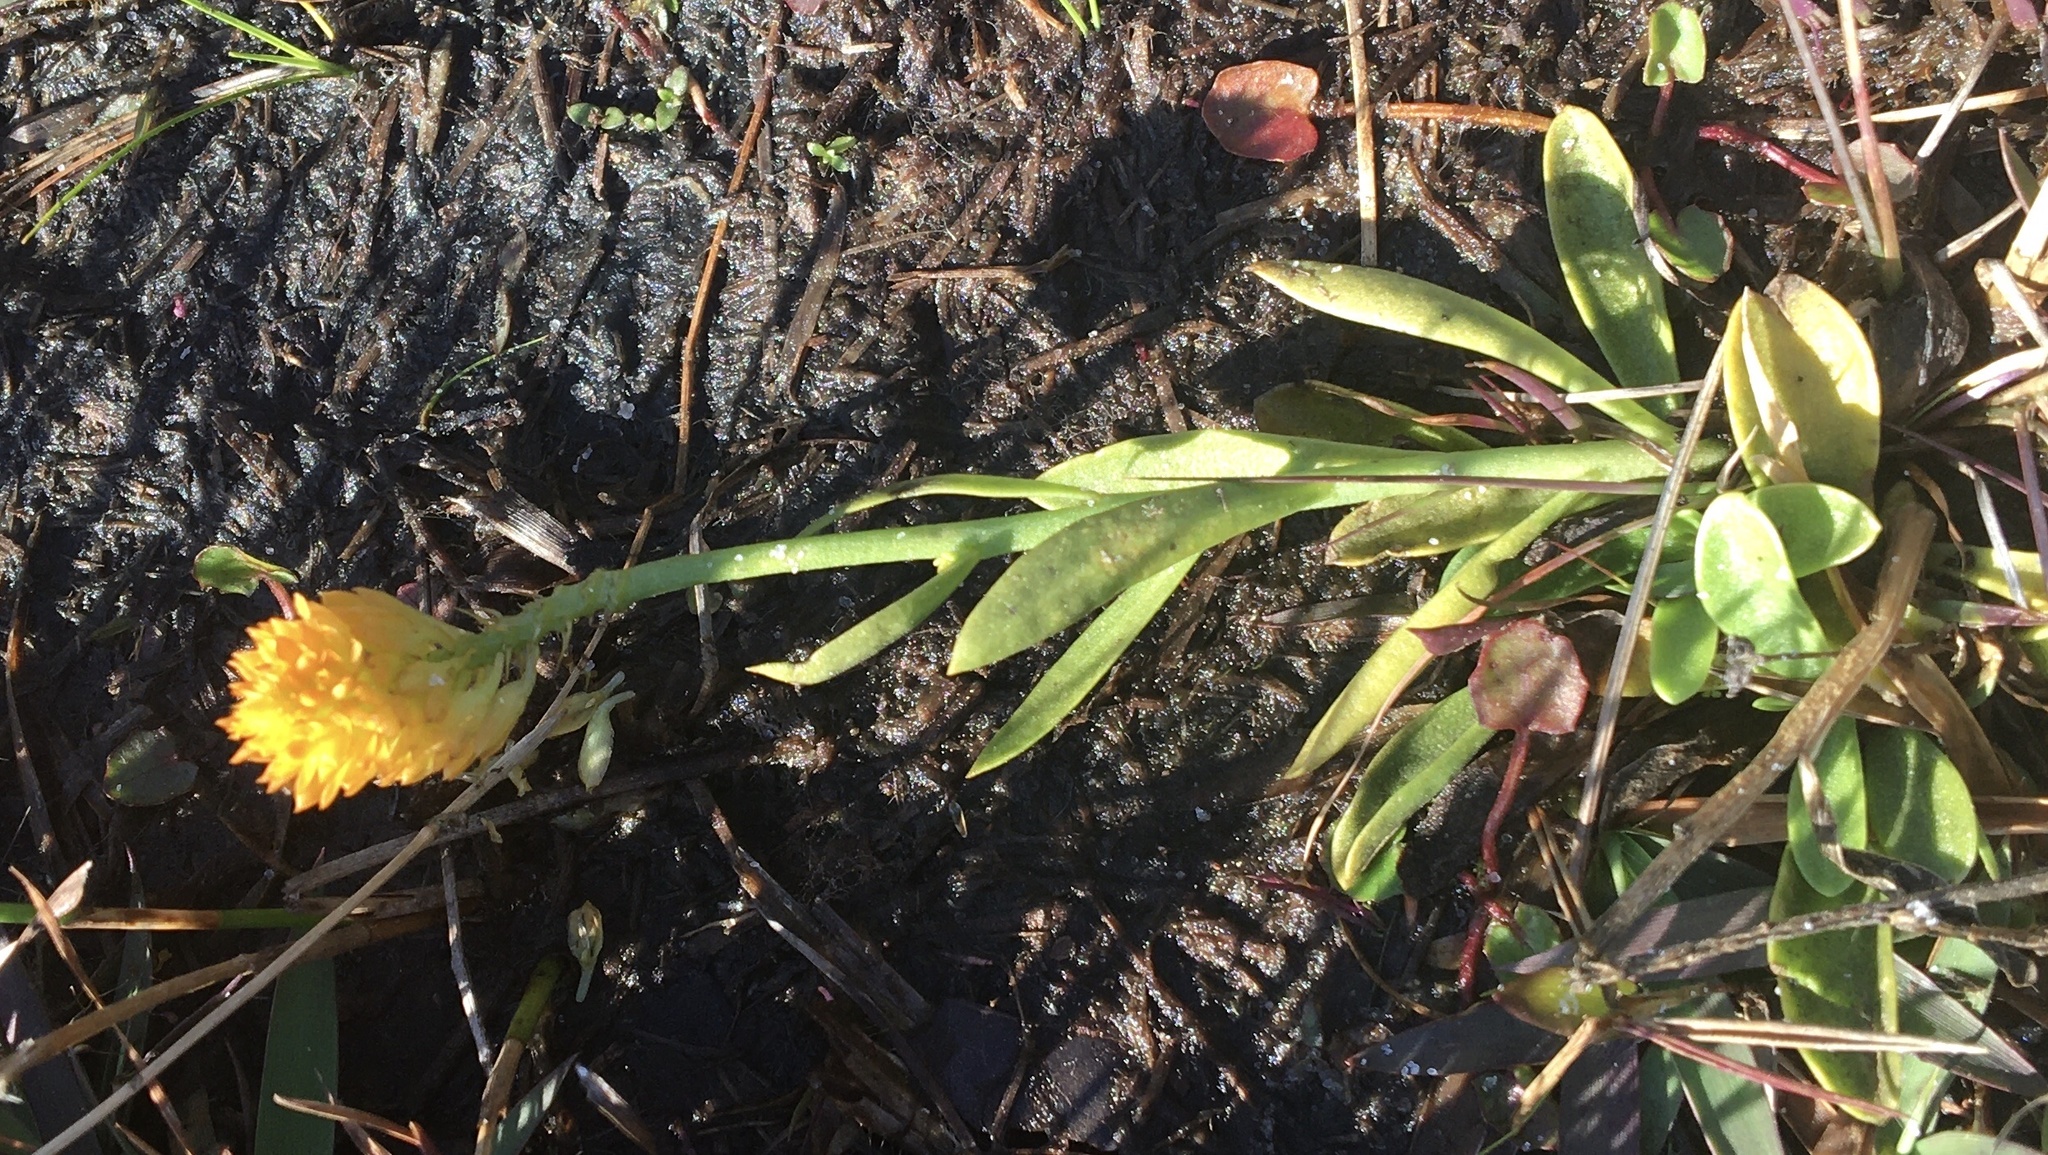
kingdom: Plantae
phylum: Tracheophyta
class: Magnoliopsida
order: Fabales
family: Polygalaceae
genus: Polygala
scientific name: Polygala lutea
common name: Orange milkwort
